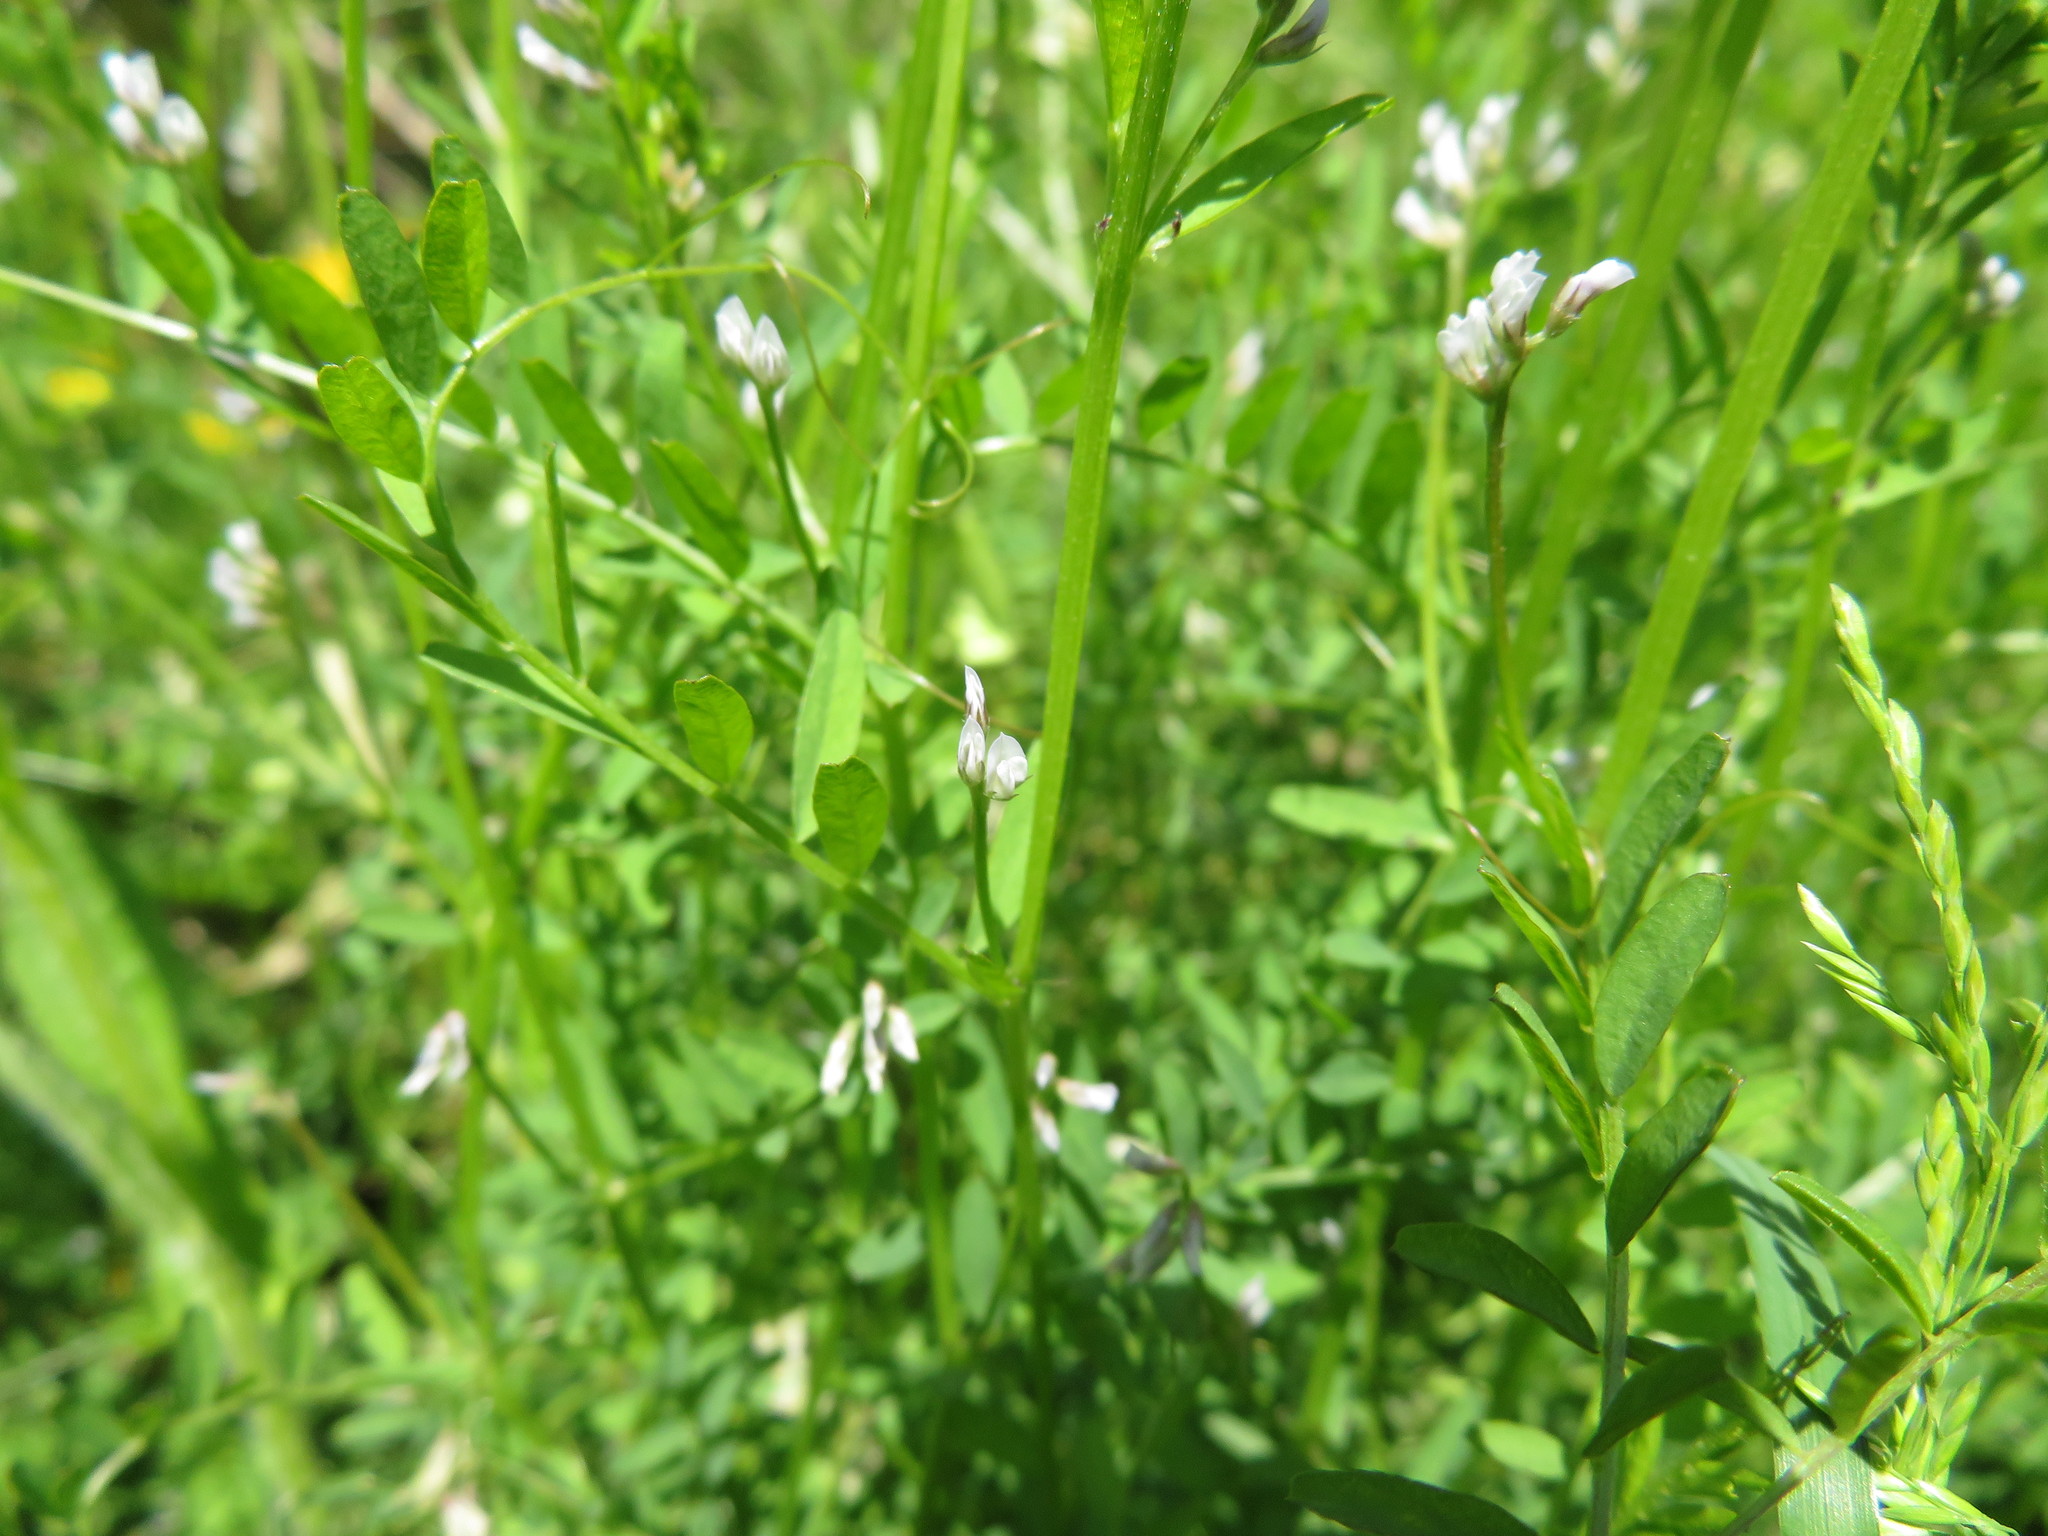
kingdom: Plantae
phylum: Tracheophyta
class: Magnoliopsida
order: Fabales
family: Fabaceae
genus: Vicia
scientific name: Vicia hirsuta
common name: Tiny vetch
